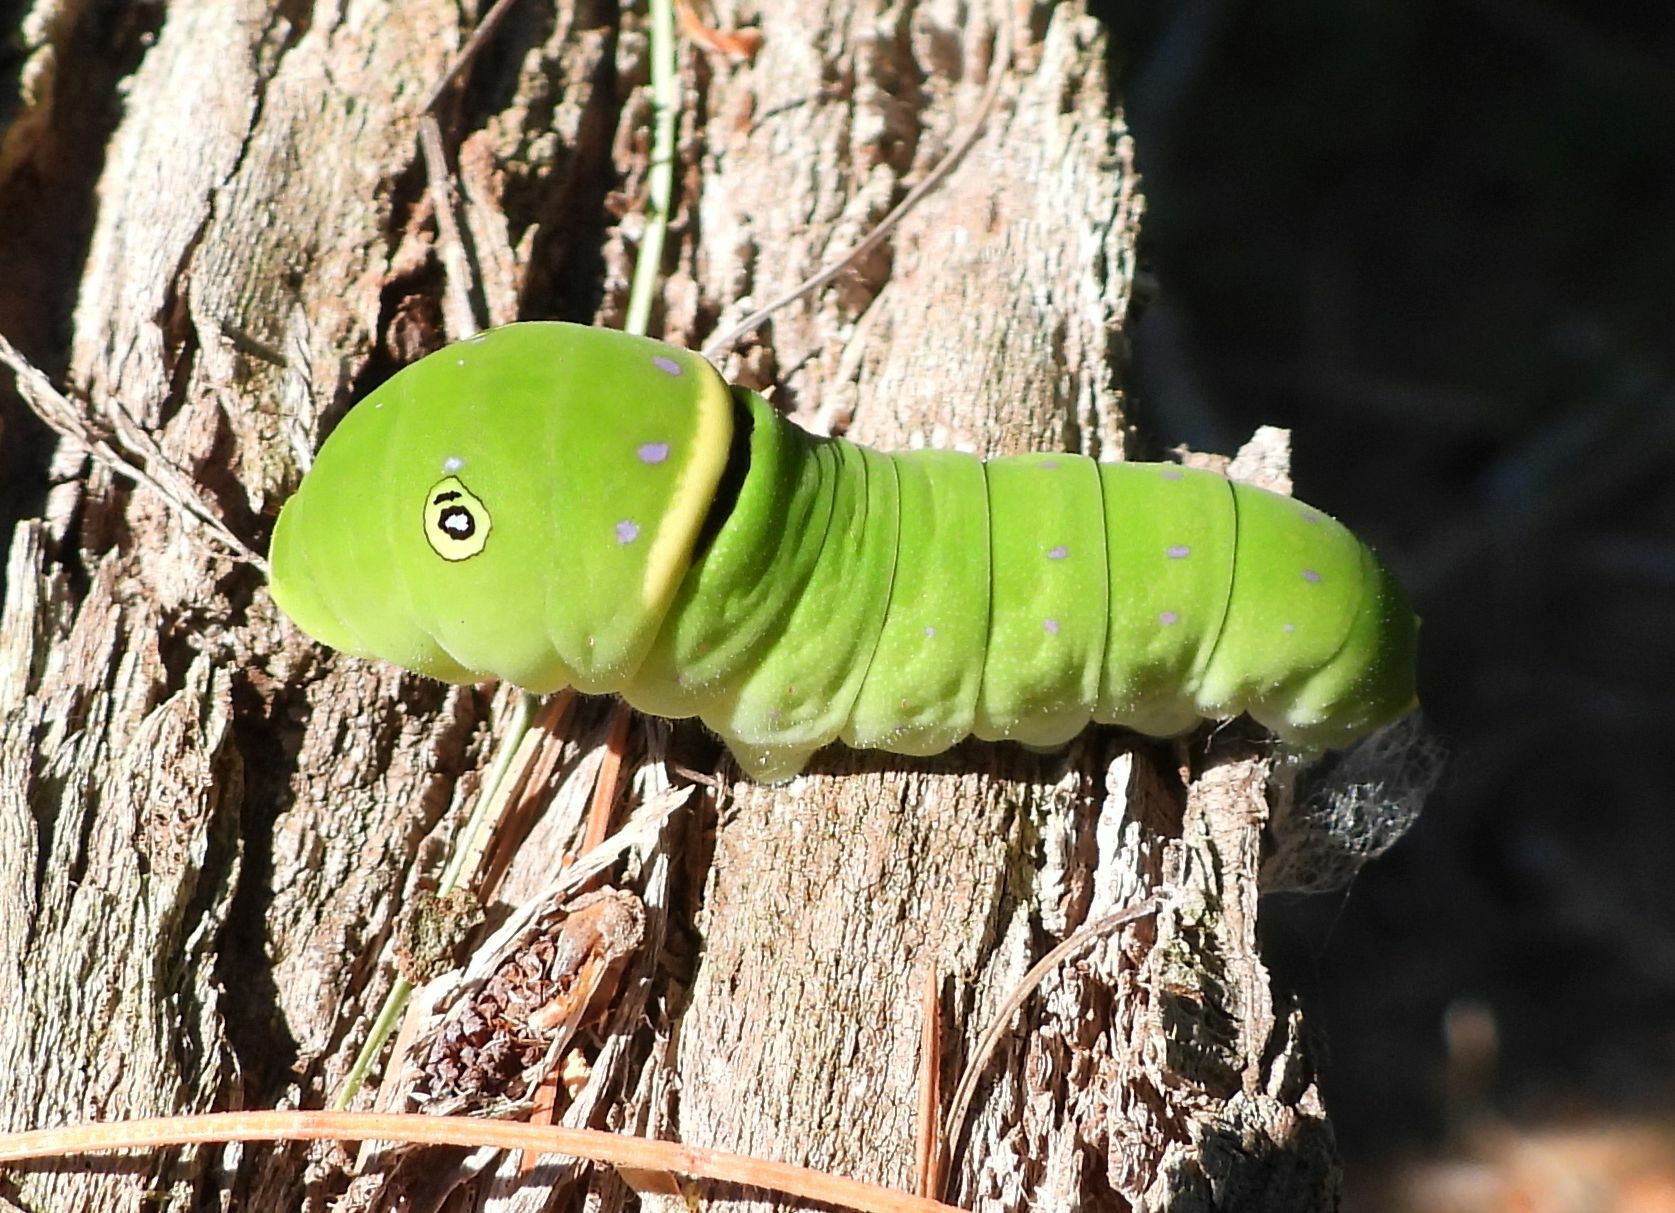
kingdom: Animalia
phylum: Arthropoda
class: Insecta
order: Lepidoptera
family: Papilionidae
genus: Papilio
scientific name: Papilio
